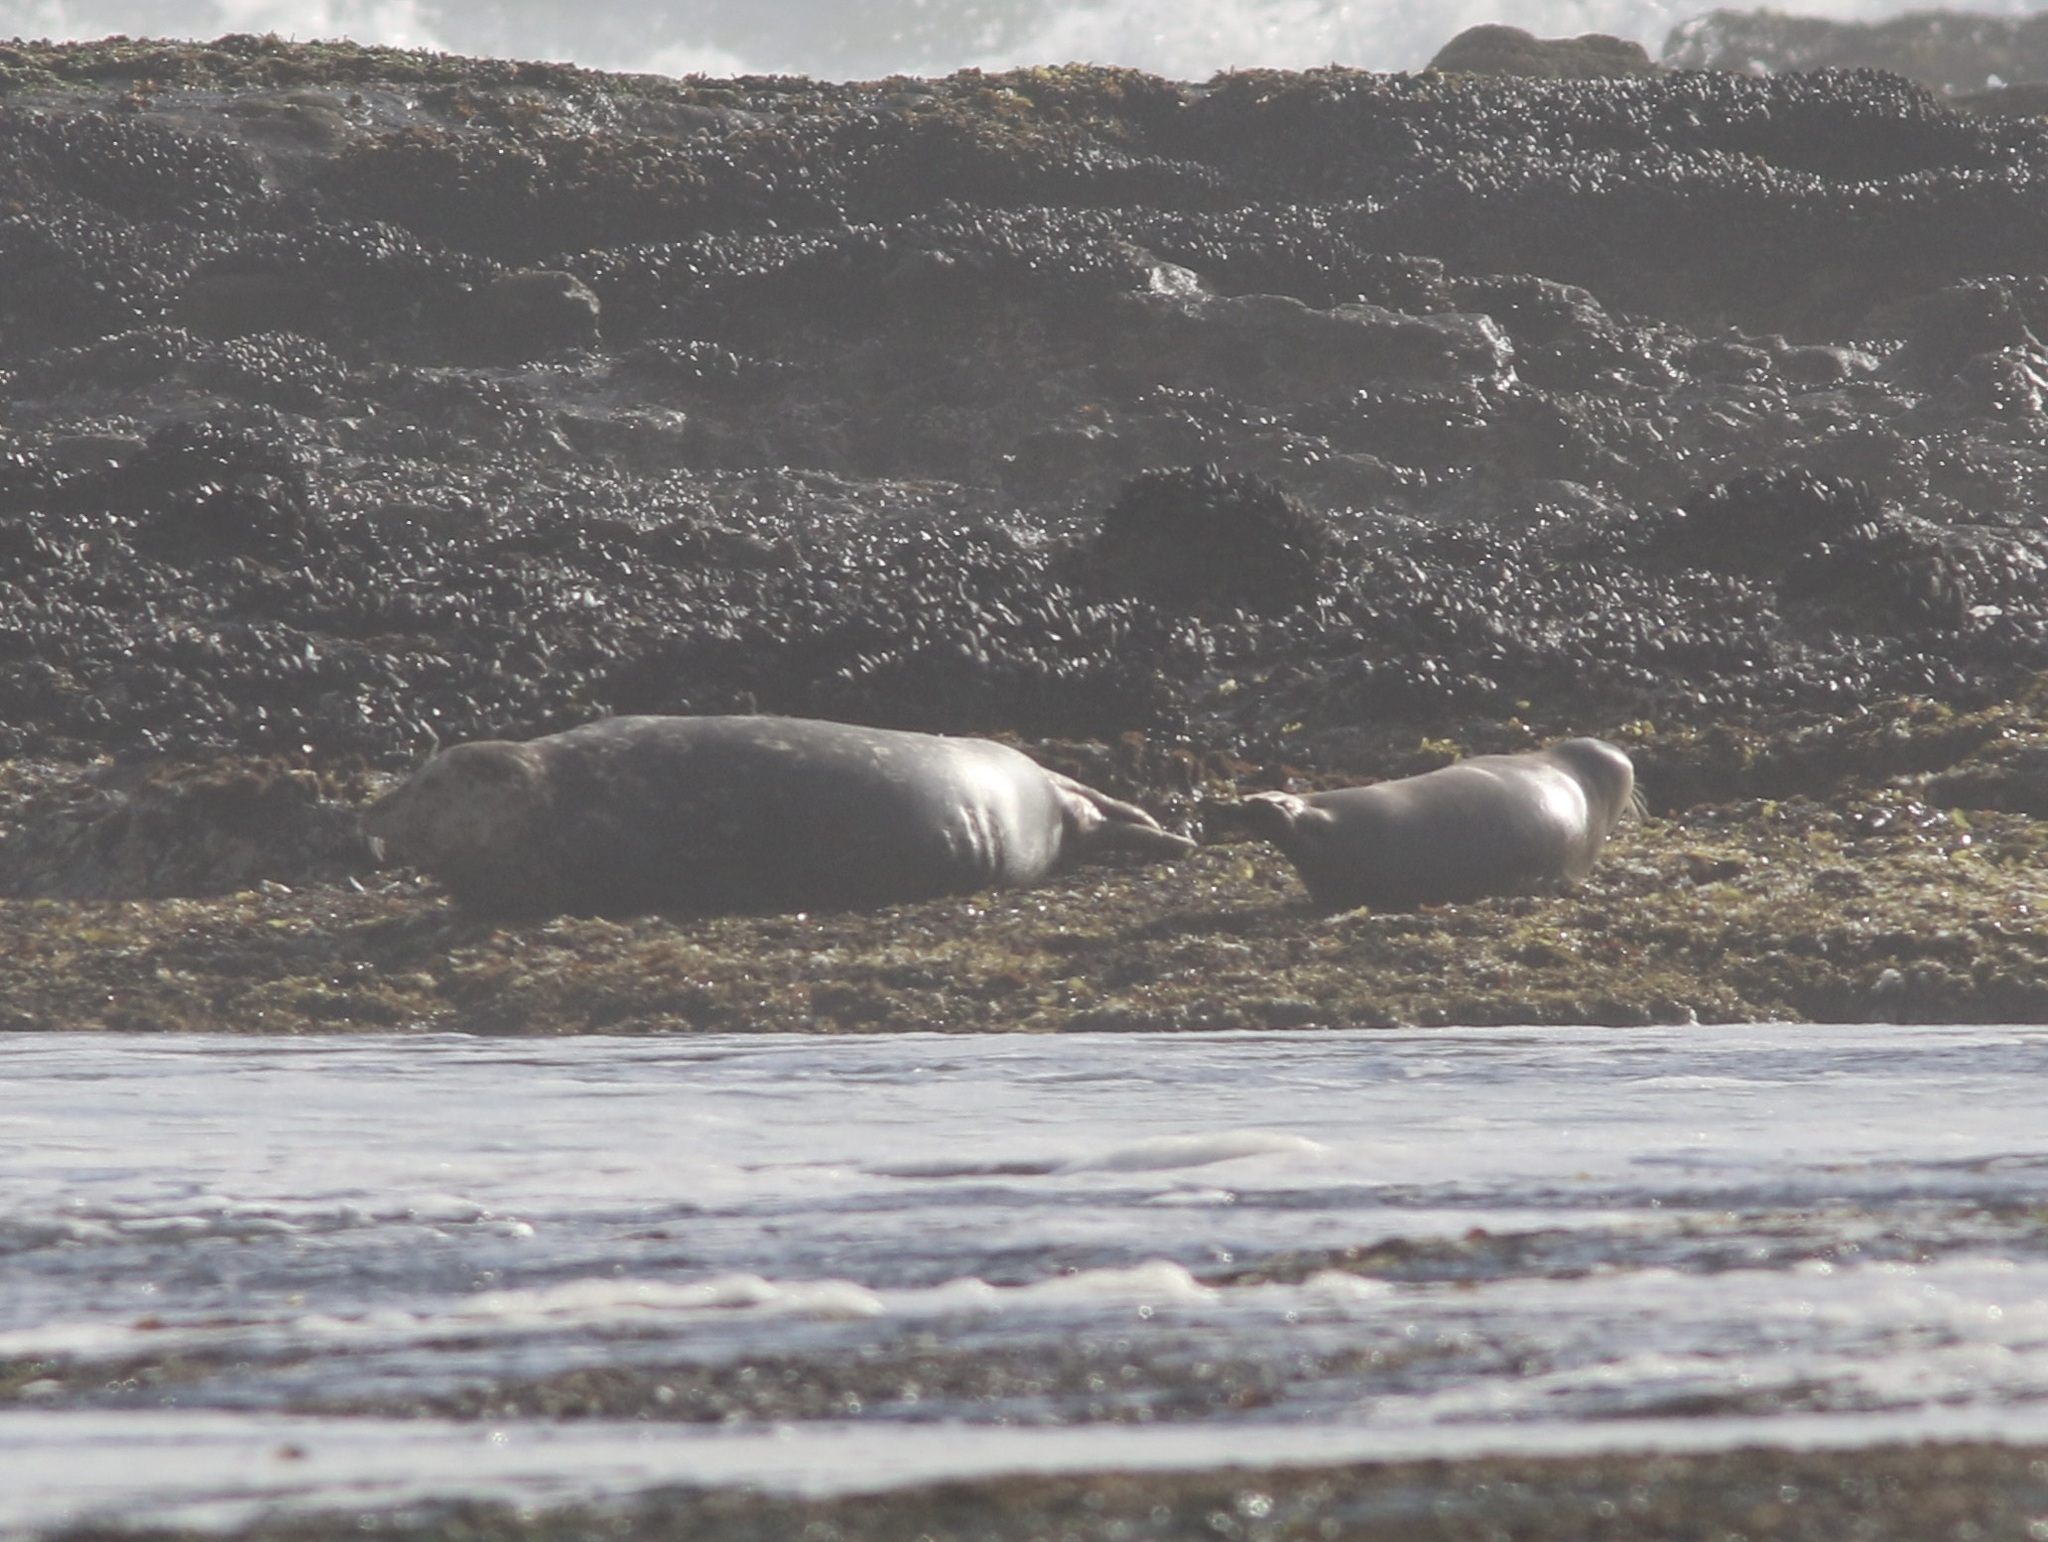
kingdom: Animalia
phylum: Chordata
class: Mammalia
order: Carnivora
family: Phocidae
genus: Phoca
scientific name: Phoca vitulina
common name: Harbor seal
